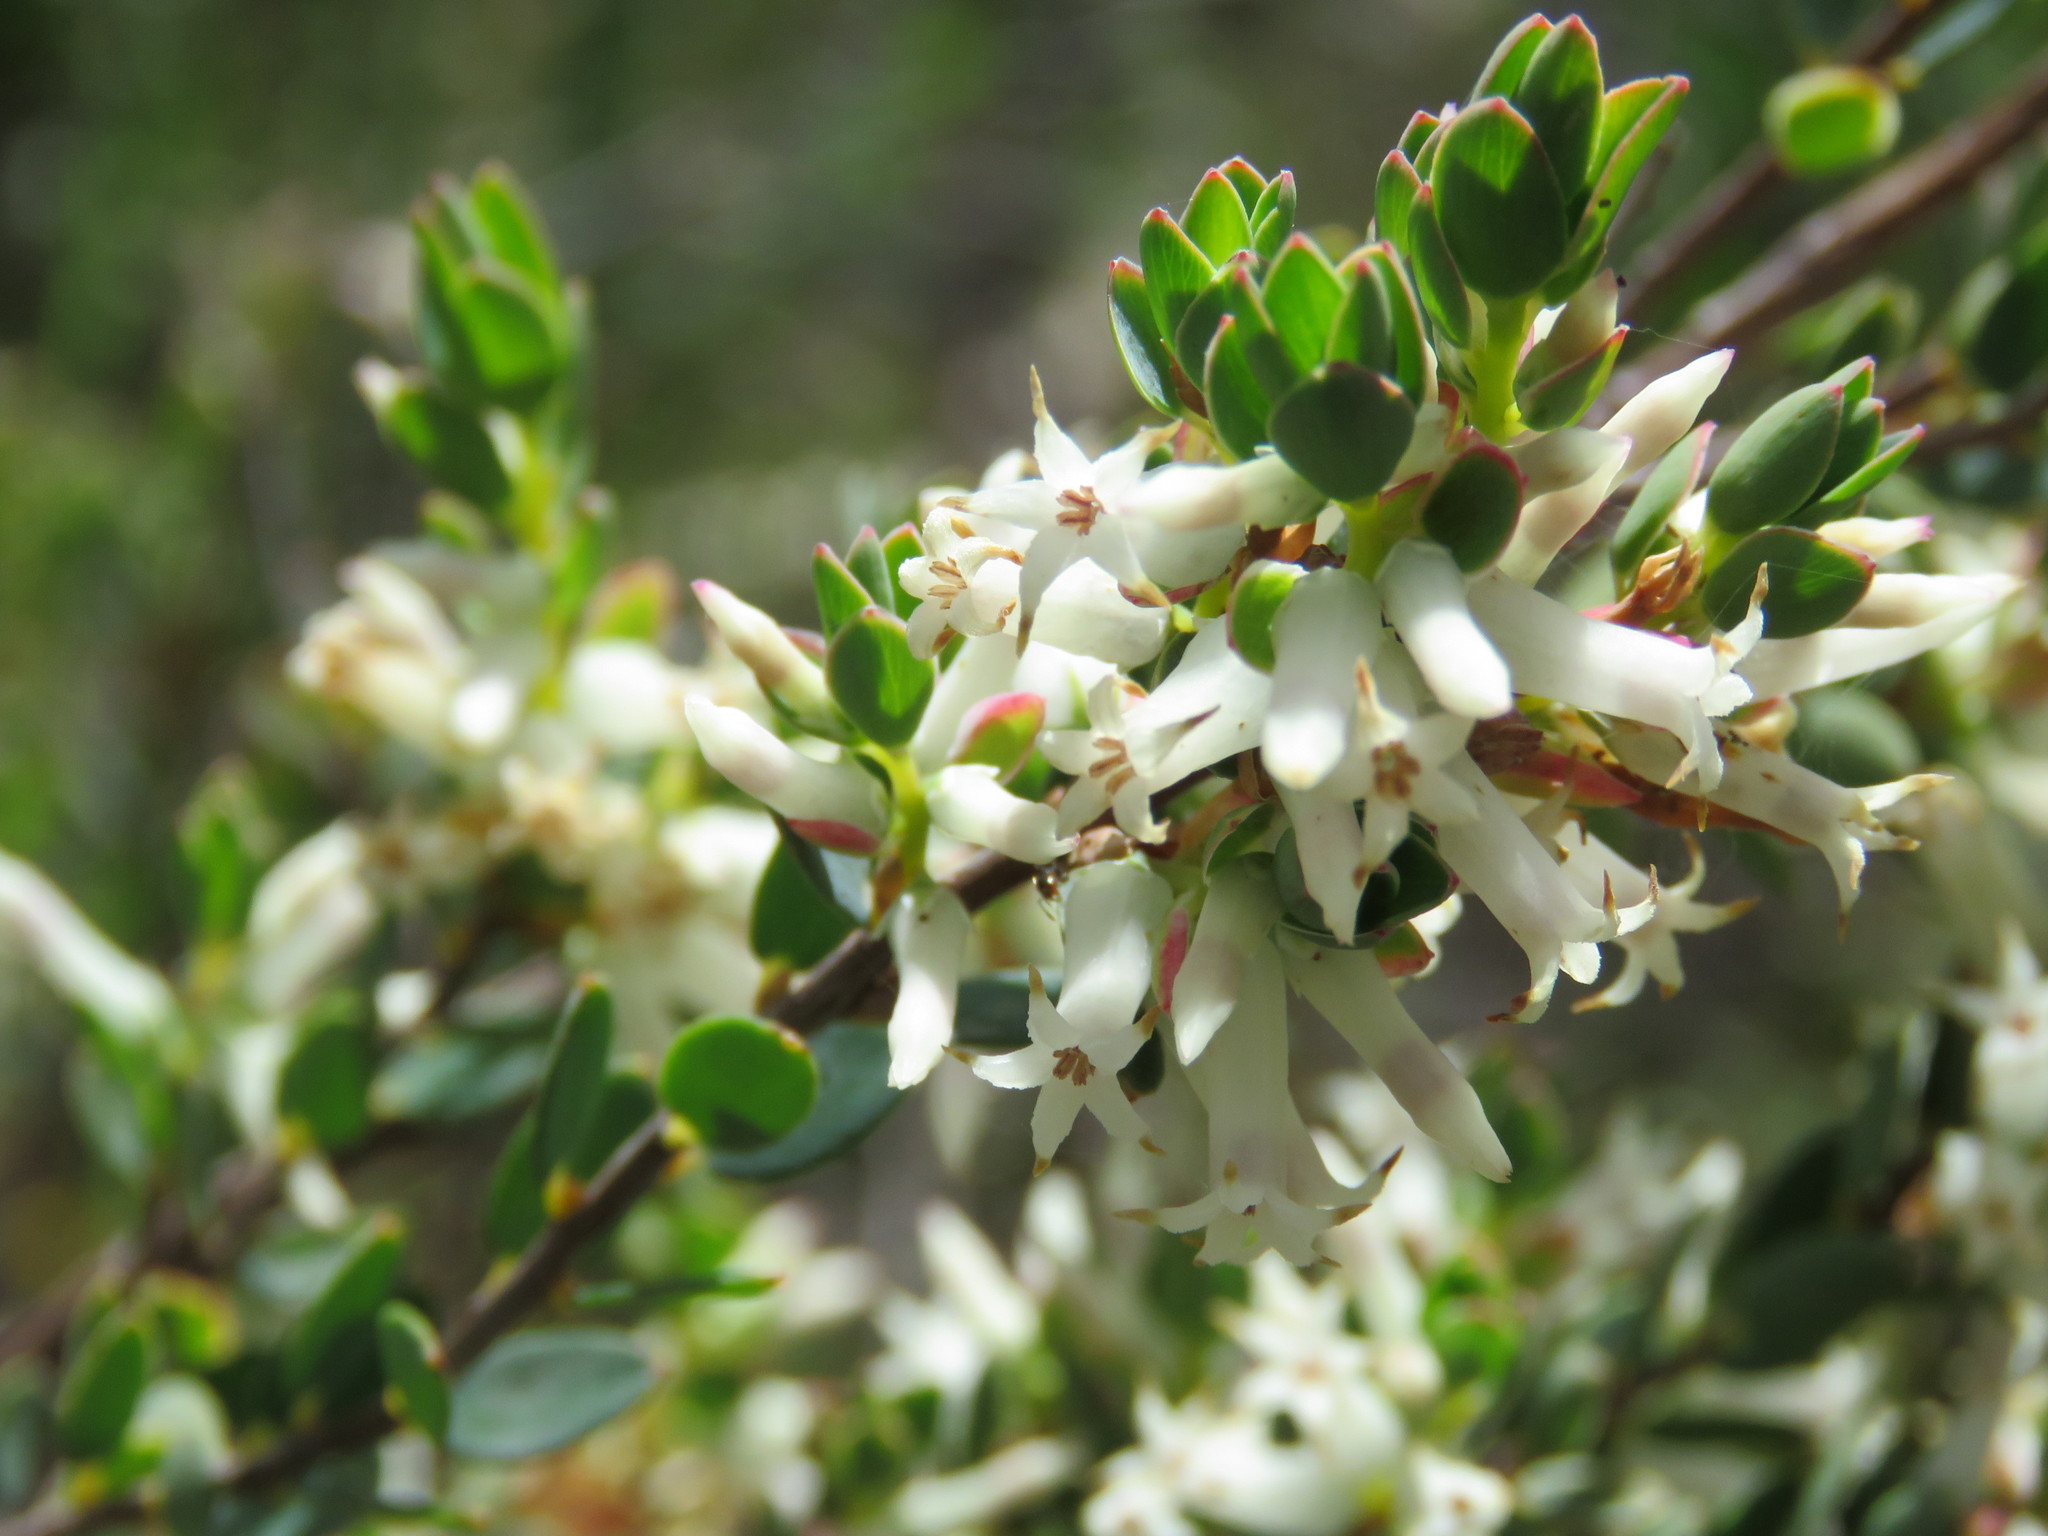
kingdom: Plantae
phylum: Tracheophyta
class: Magnoliopsida
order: Ericales
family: Ericaceae
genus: Brachyloma
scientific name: Brachyloma daphnoides
